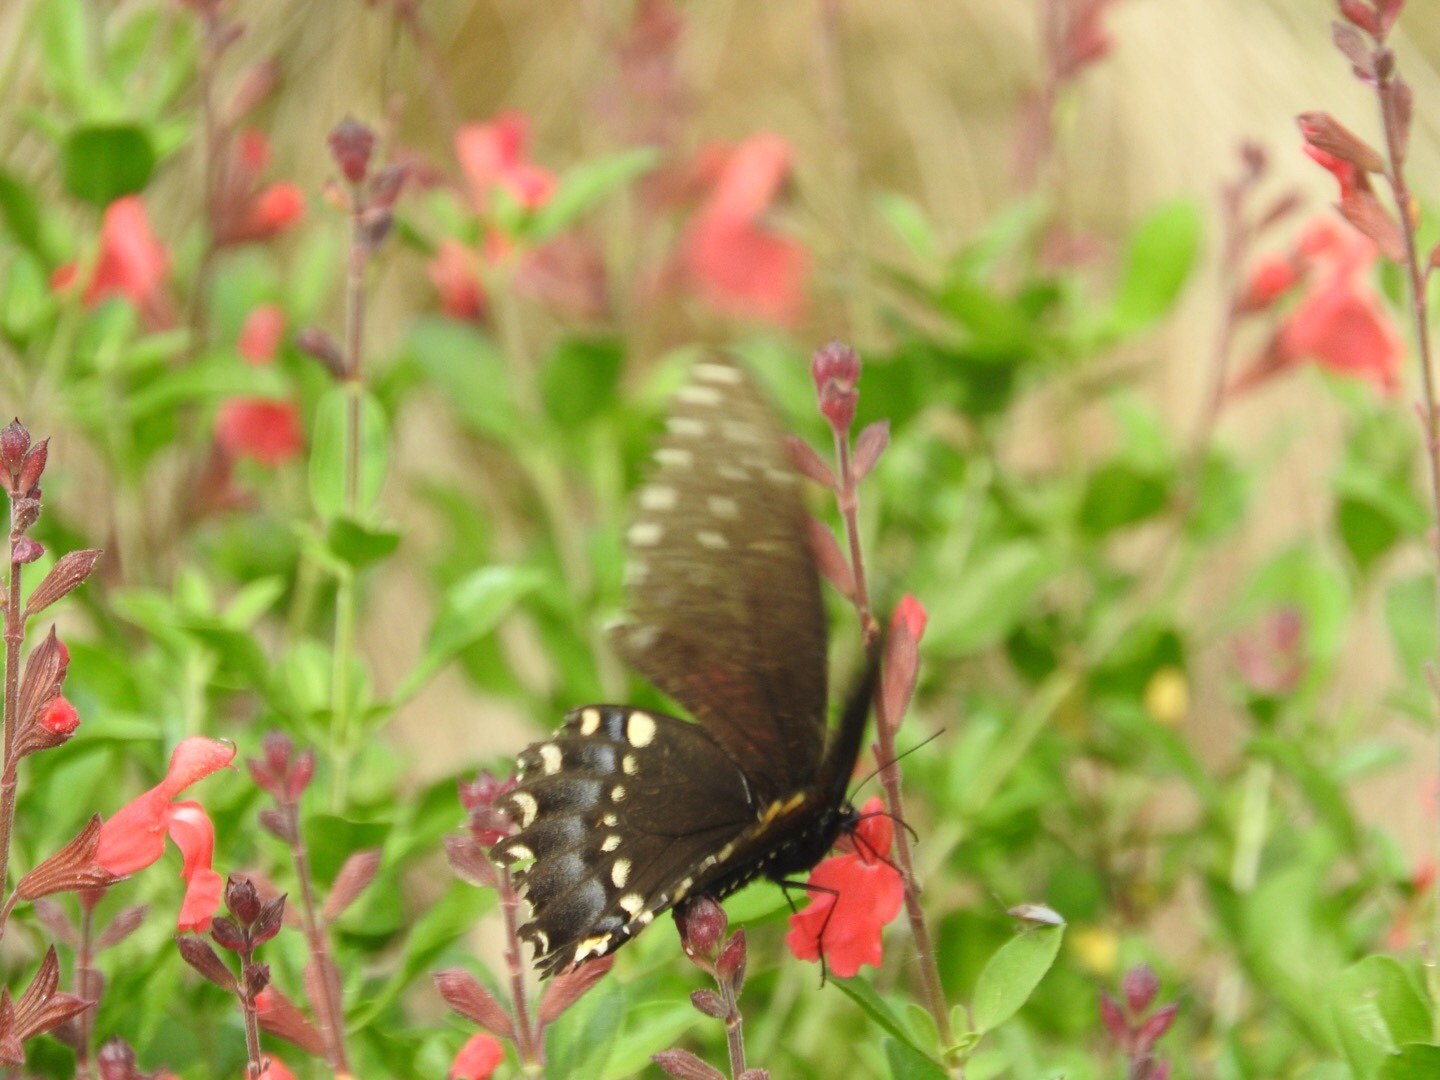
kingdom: Animalia
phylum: Arthropoda
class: Insecta
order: Lepidoptera
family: Papilionidae
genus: Papilio
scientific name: Papilio polyxenes
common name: Black swallowtail
